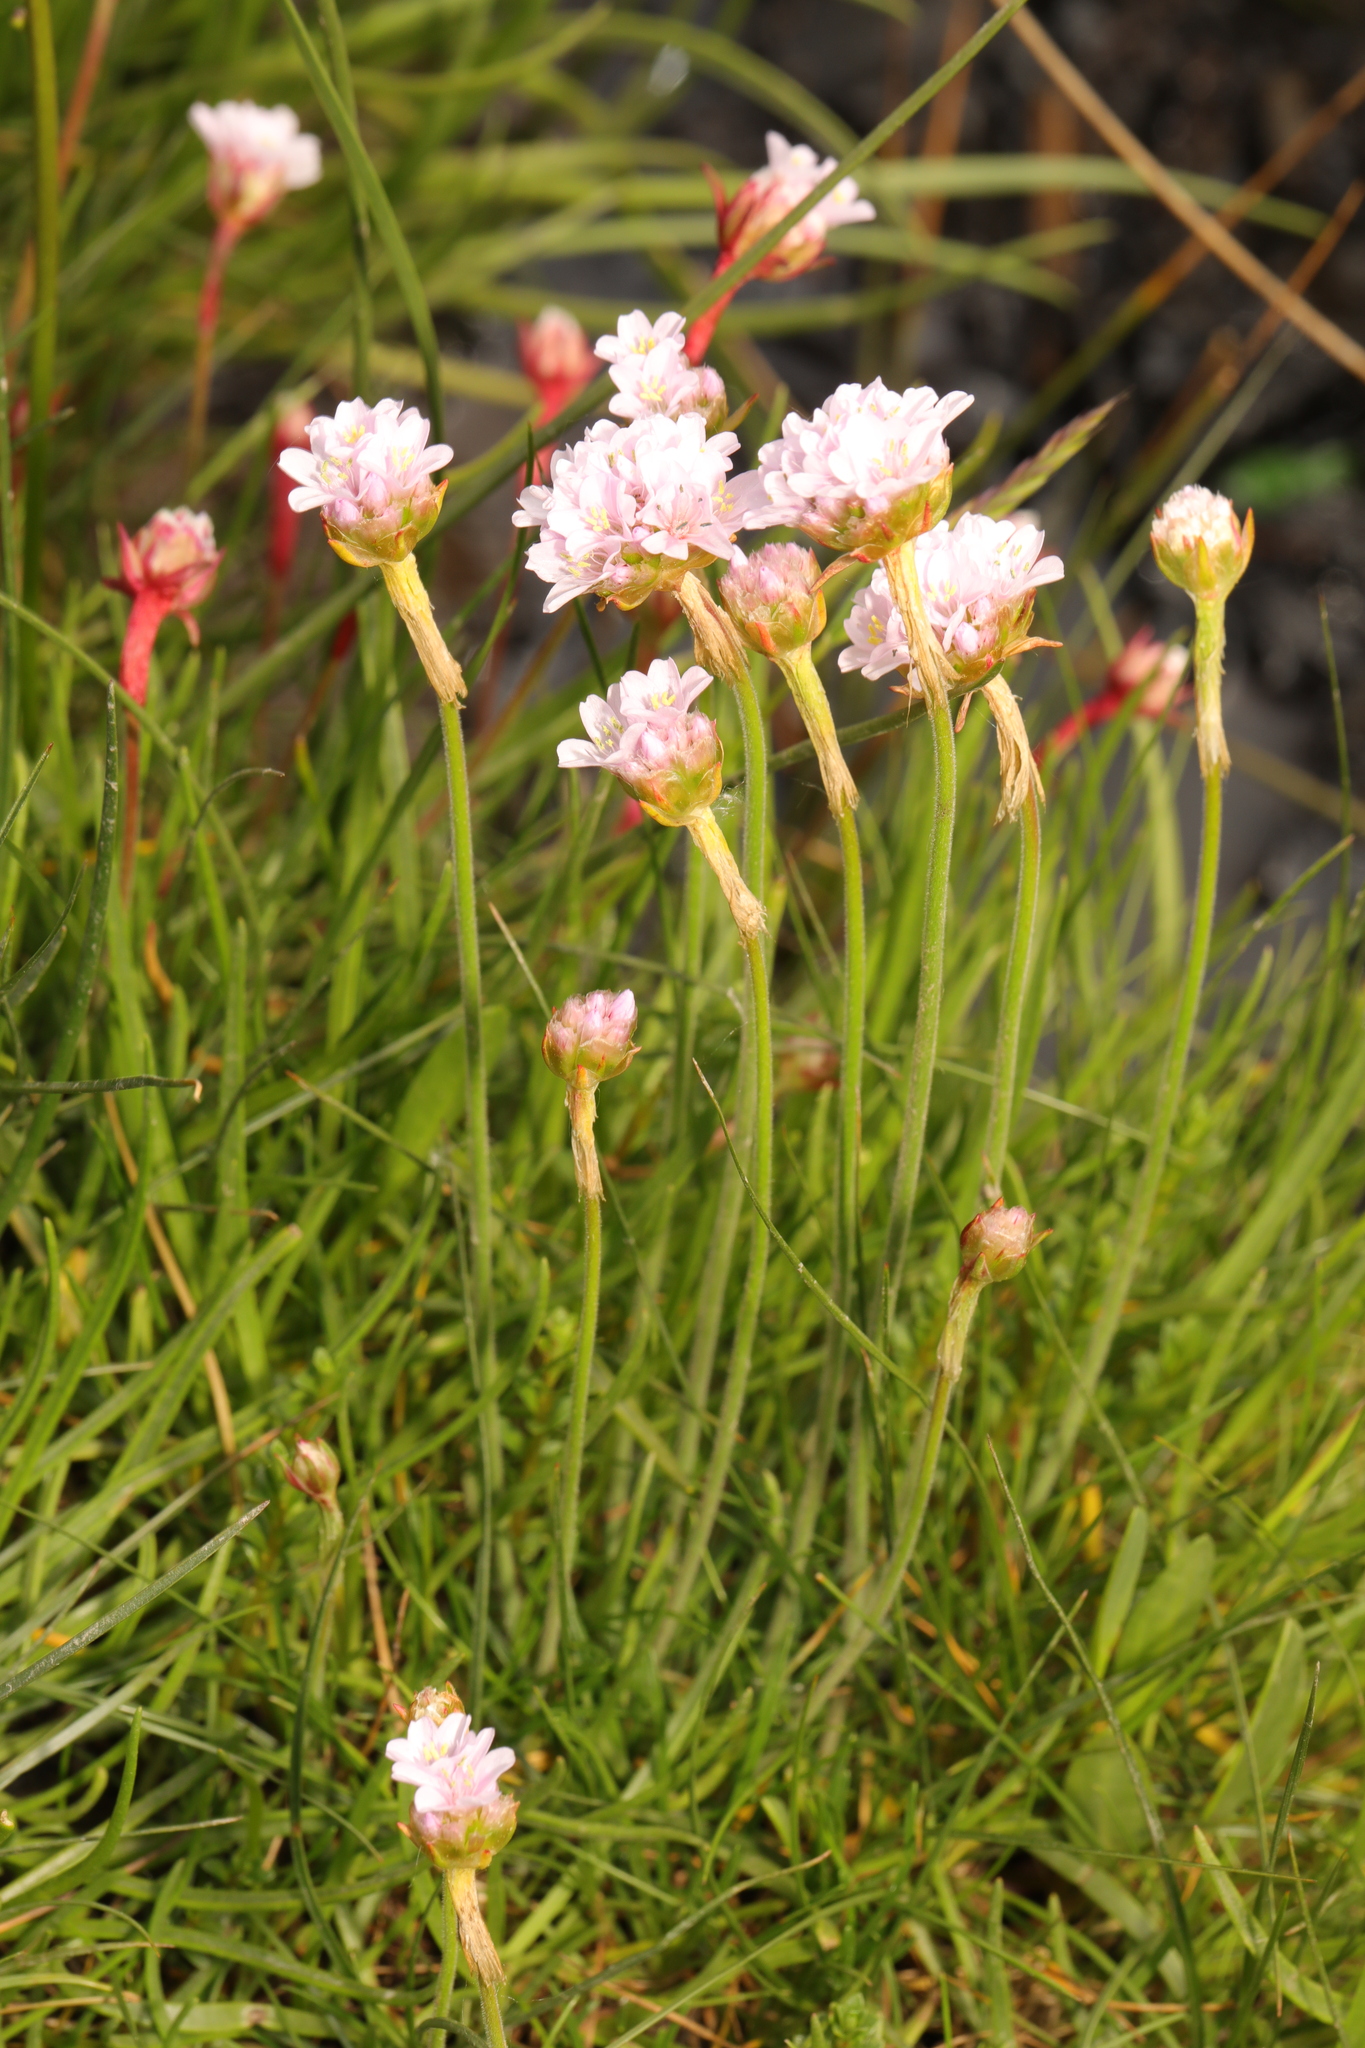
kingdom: Plantae
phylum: Tracheophyta
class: Magnoliopsida
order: Caryophyllales
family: Plumbaginaceae
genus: Armeria
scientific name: Armeria maritima
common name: Thrift
